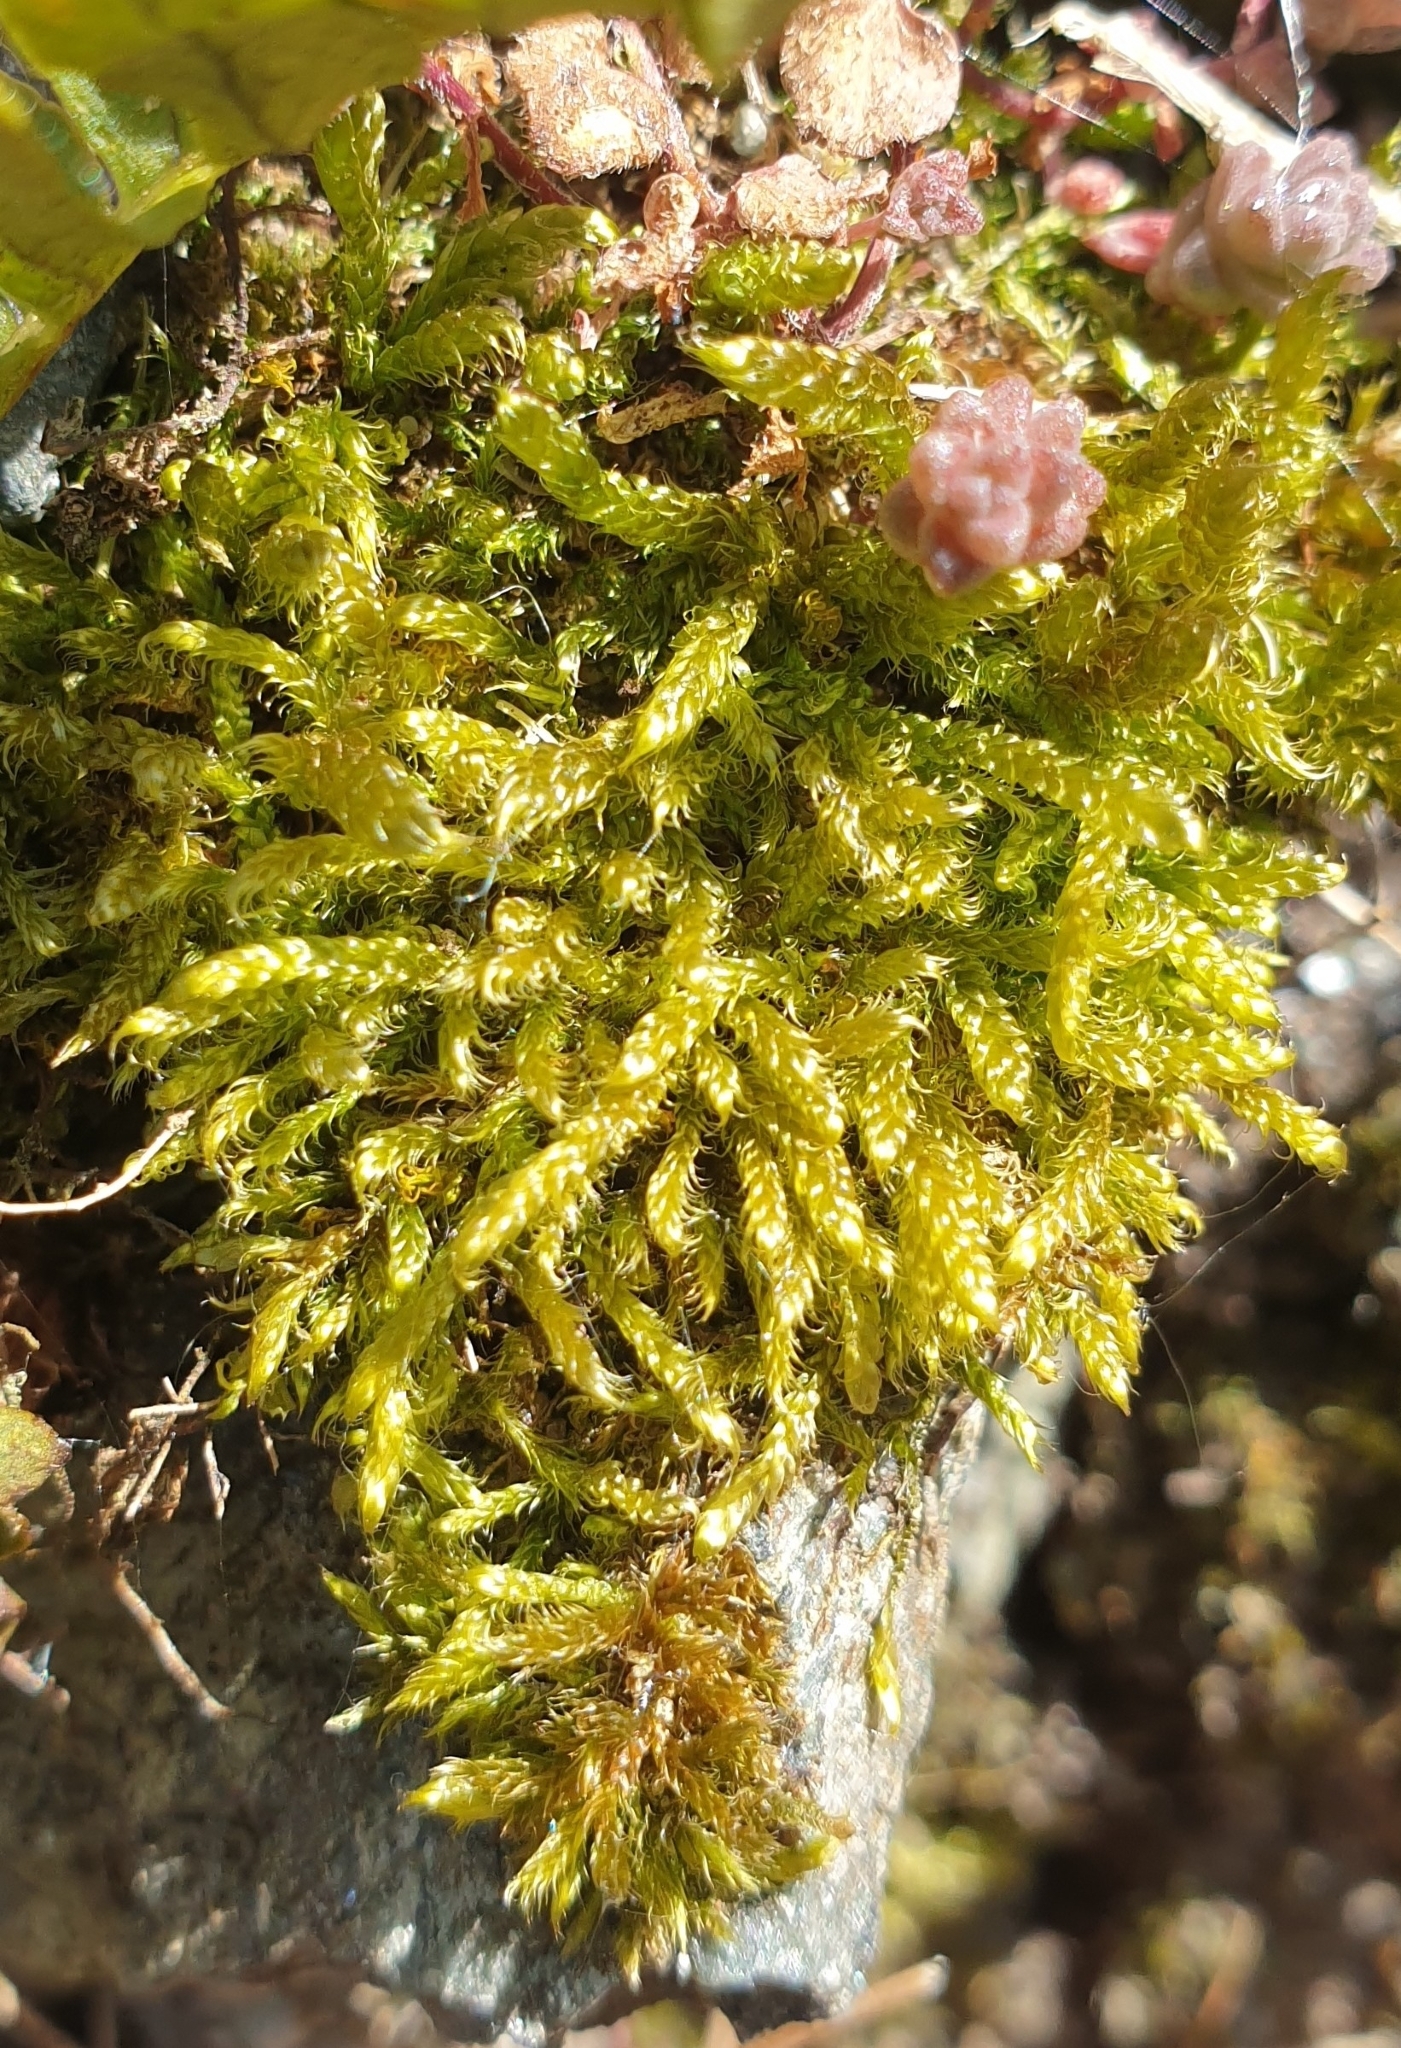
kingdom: Plantae
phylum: Bryophyta
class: Bryopsida
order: Hypnales
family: Hypnaceae
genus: Hypnum
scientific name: Hypnum cupressiforme
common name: Cypress-leaved plait-moss
